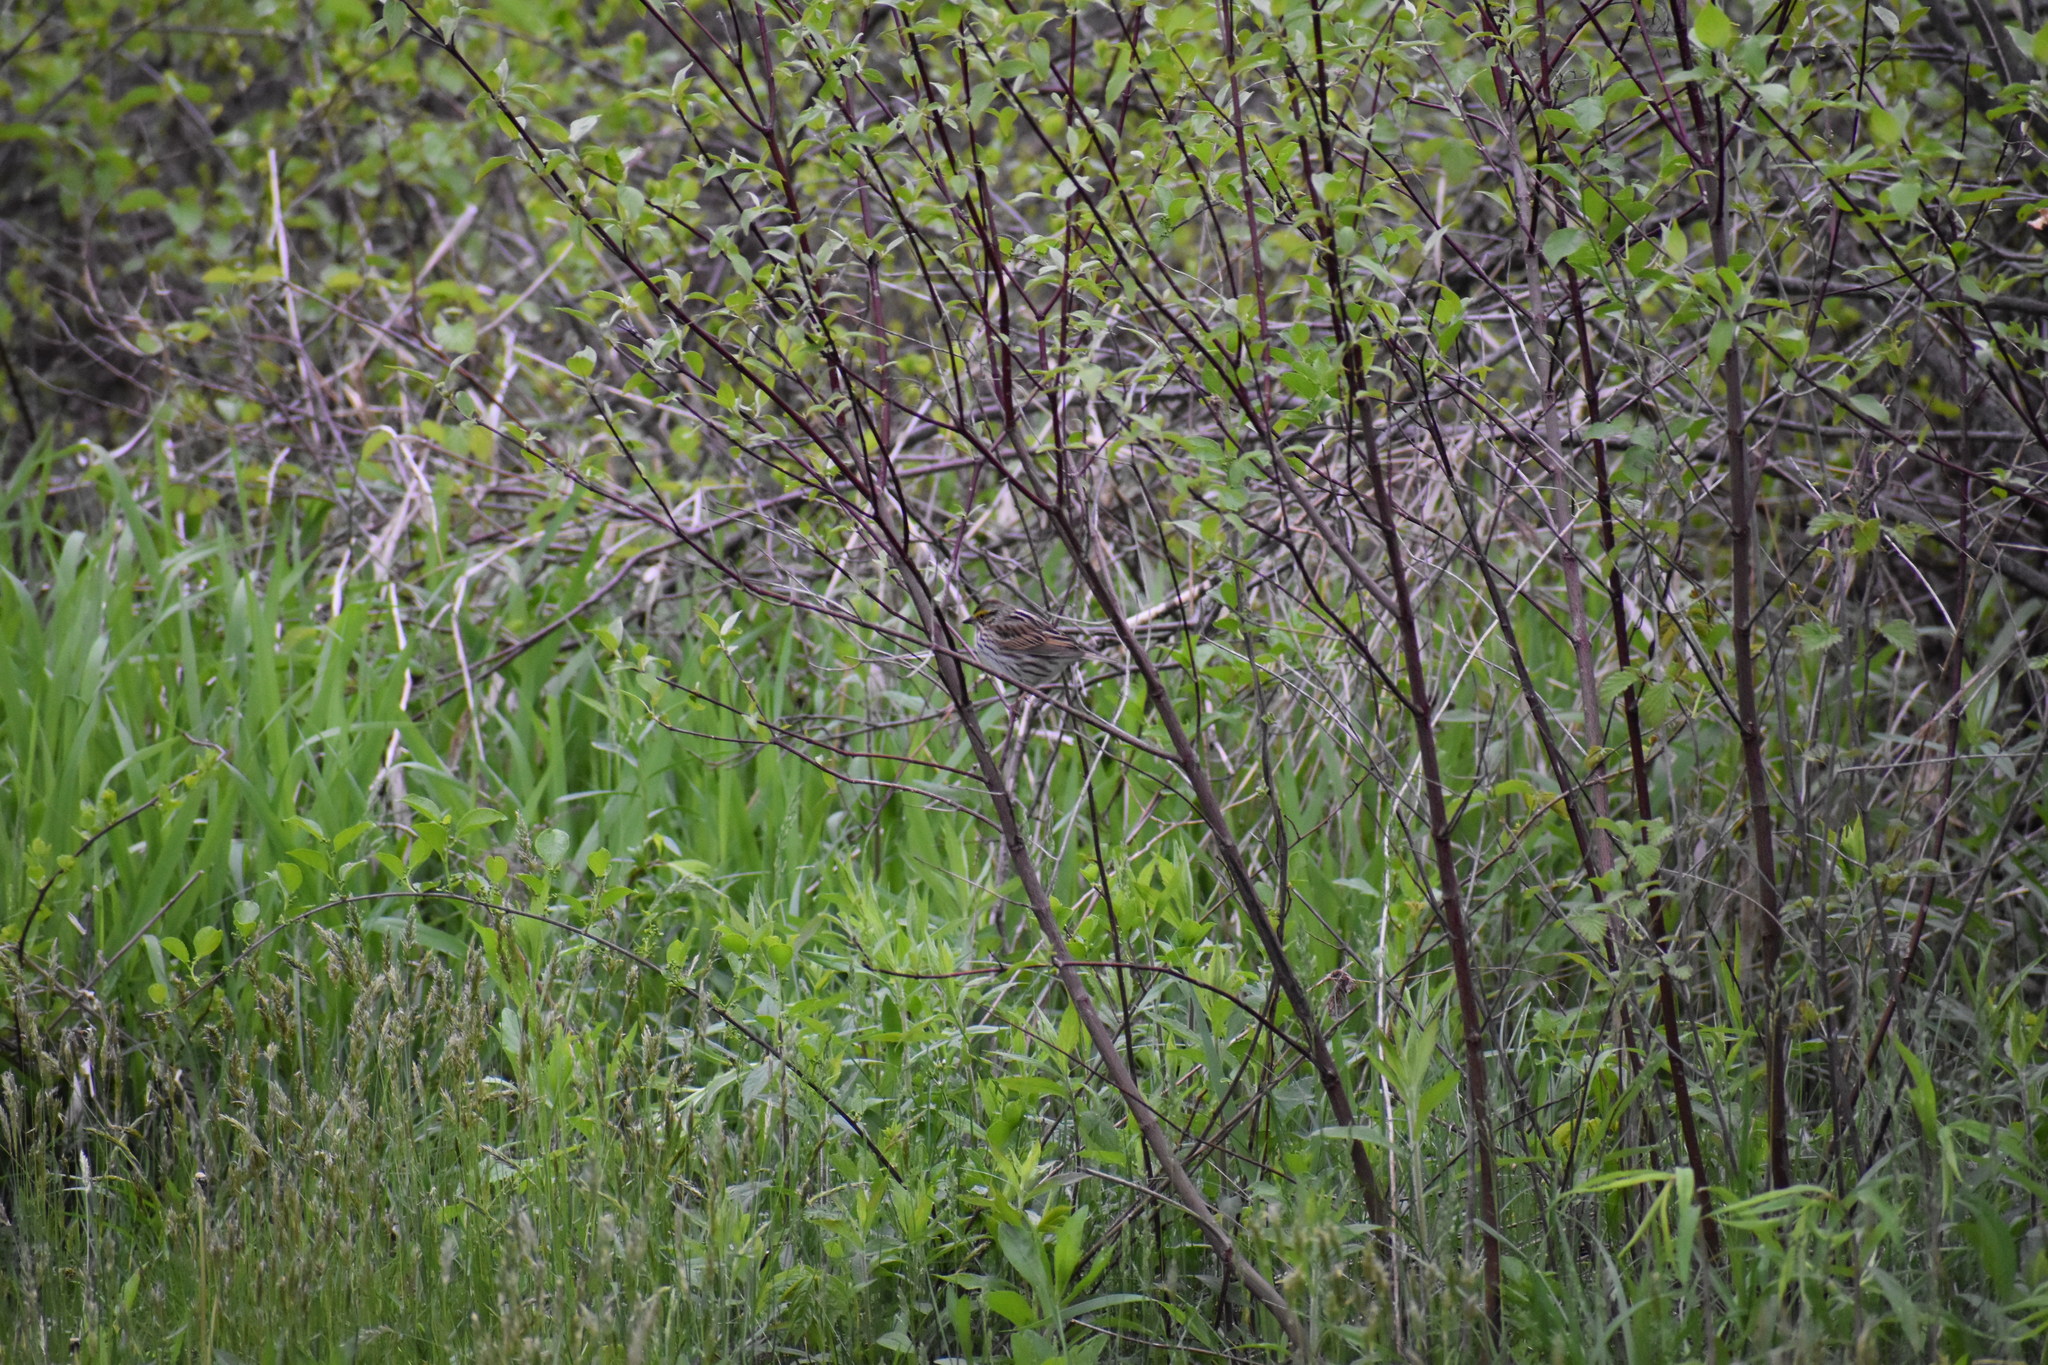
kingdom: Animalia
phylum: Chordata
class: Aves
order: Passeriformes
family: Passerellidae
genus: Passerculus
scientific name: Passerculus sandwichensis
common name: Savannah sparrow
